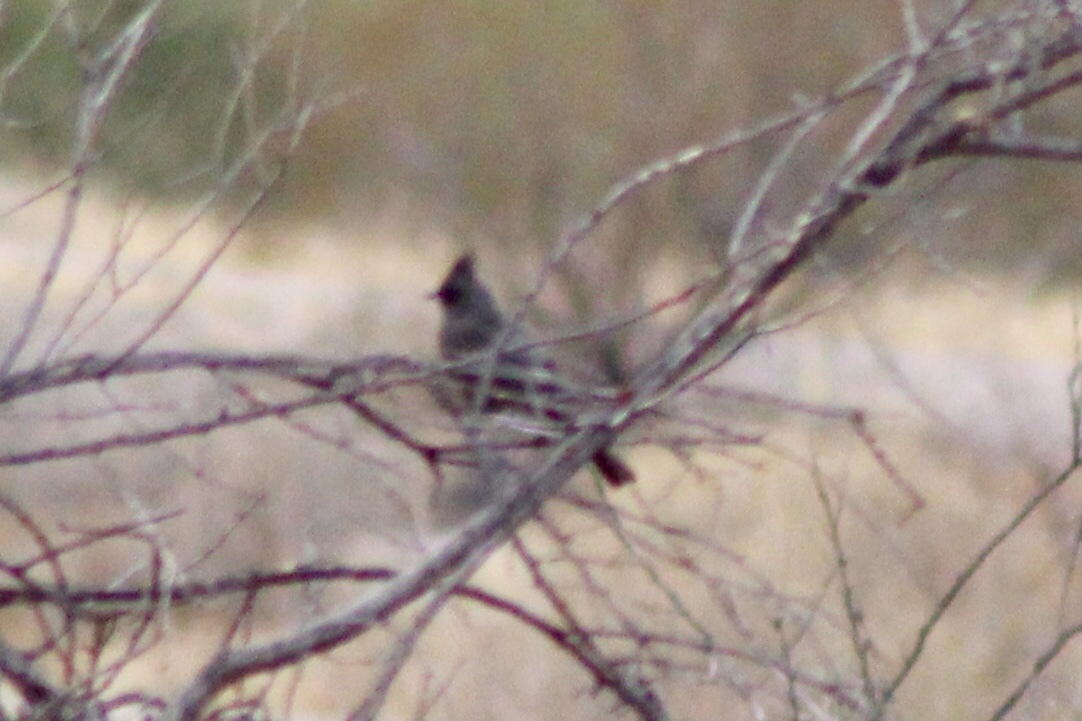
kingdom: Animalia
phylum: Chordata
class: Aves
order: Passeriformes
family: Ptilogonatidae
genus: Phainopepla
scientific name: Phainopepla nitens
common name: Phainopepla
